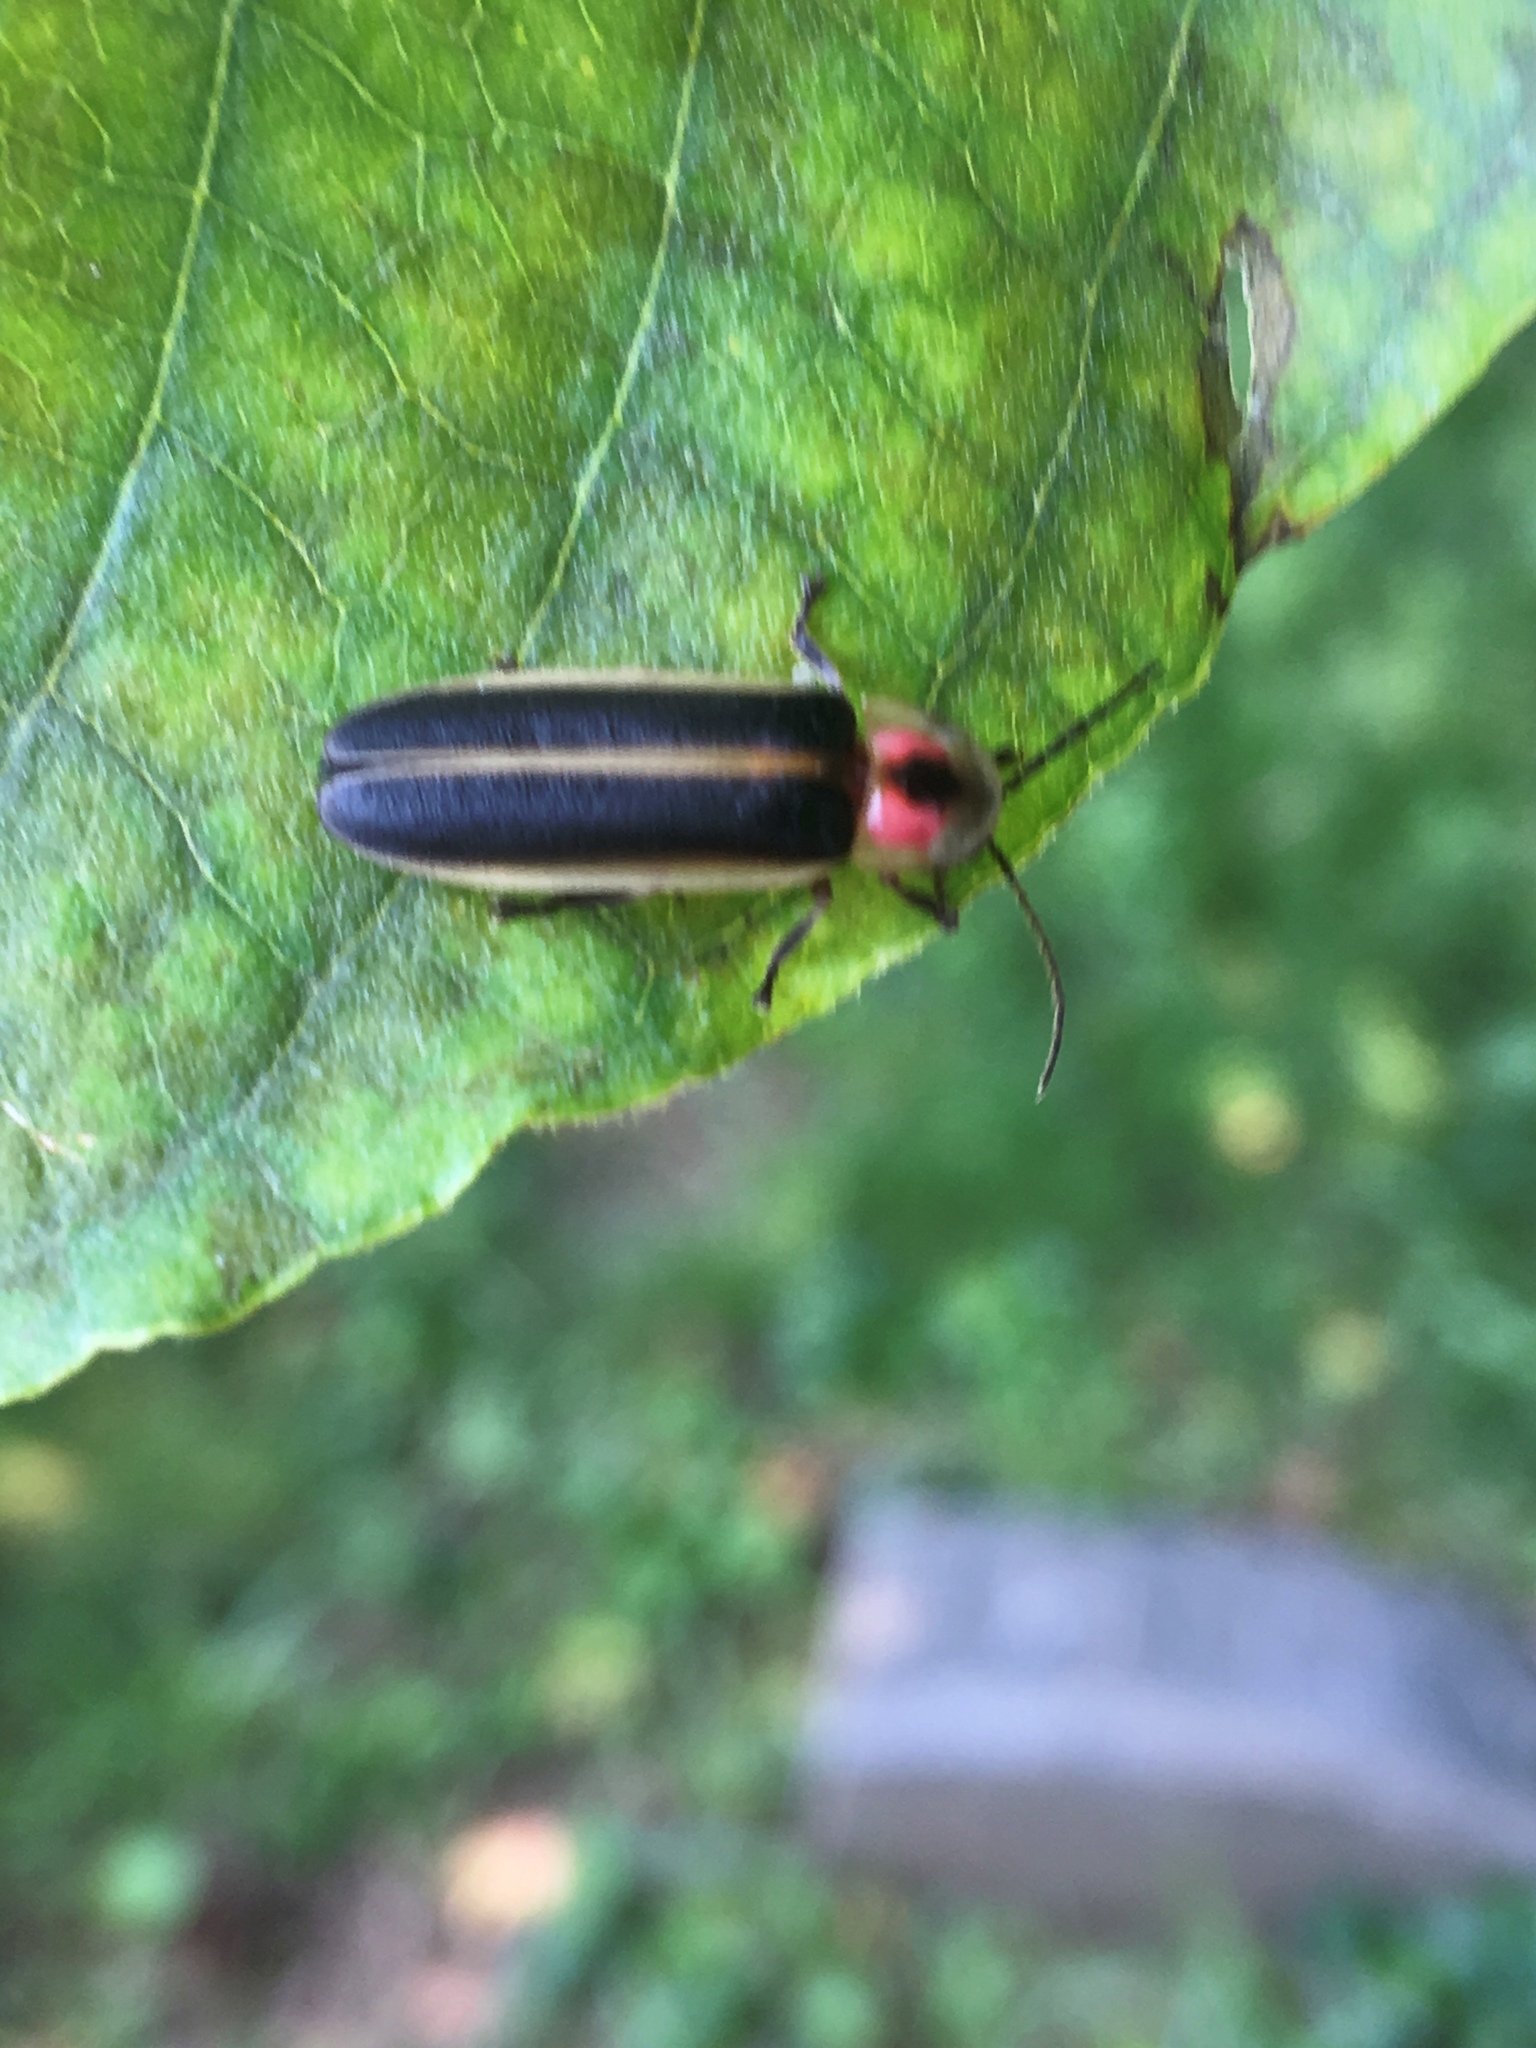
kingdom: Animalia
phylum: Arthropoda
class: Insecta
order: Coleoptera
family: Lampyridae
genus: Photinus
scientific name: Photinus pyralis
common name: Big dipper firefly
